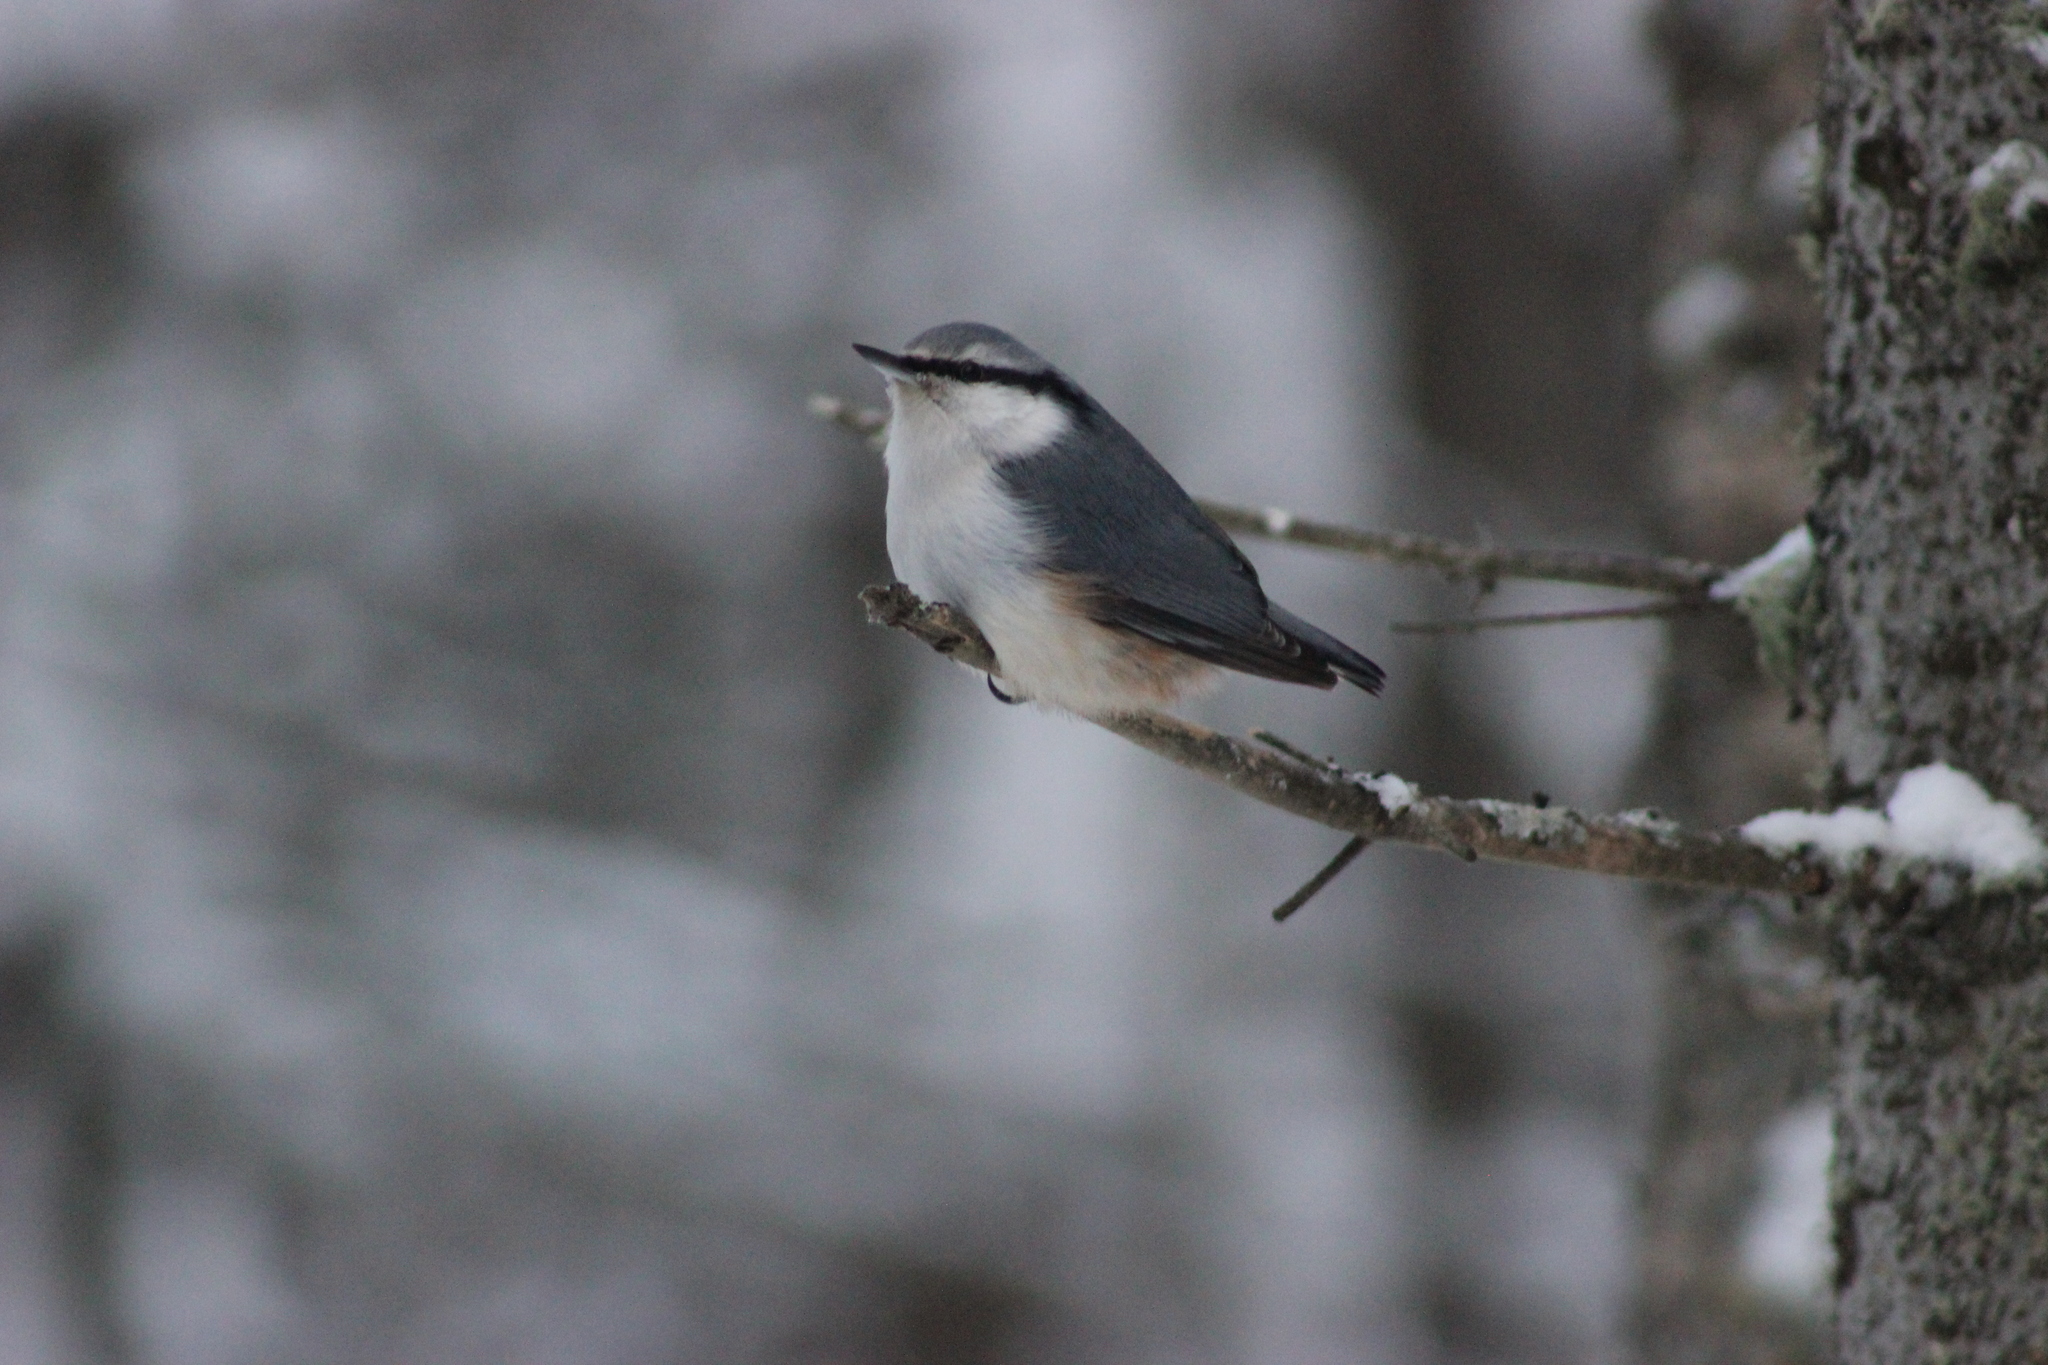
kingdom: Animalia
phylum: Chordata
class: Aves
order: Passeriformes
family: Sittidae
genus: Sitta
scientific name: Sitta europaea
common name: Eurasian nuthatch
